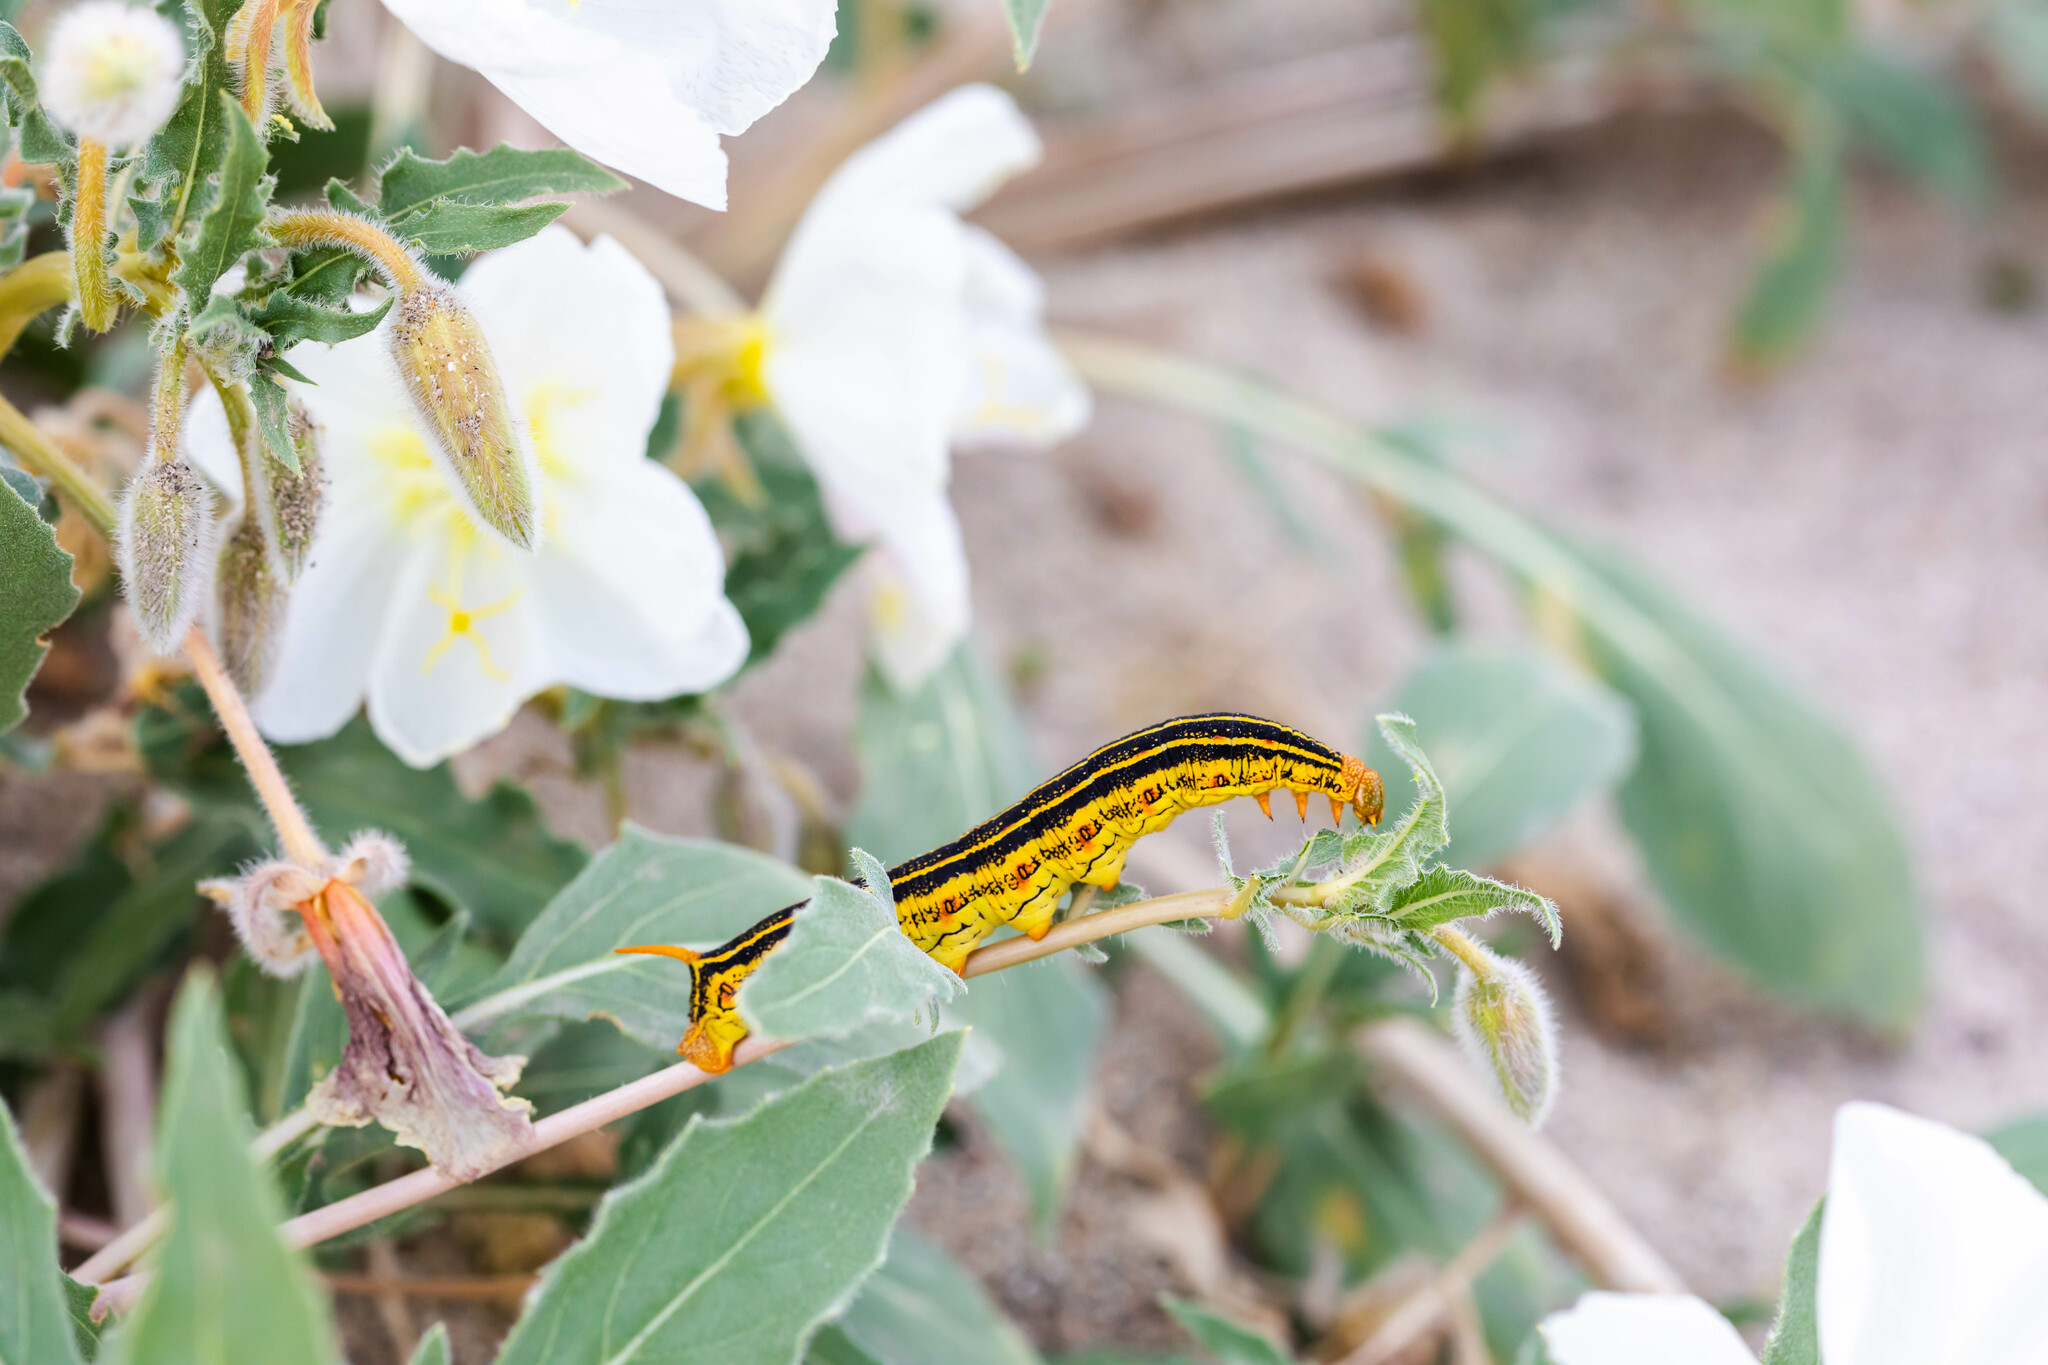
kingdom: Animalia
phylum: Arthropoda
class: Insecta
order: Lepidoptera
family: Sphingidae
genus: Hyles
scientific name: Hyles lineata
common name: White-lined sphinx
